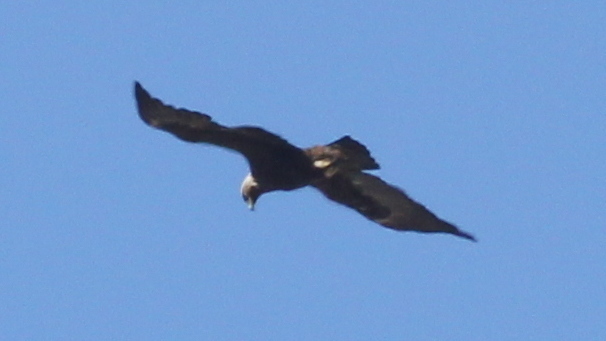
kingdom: Animalia
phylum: Chordata
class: Aves
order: Accipitriformes
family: Accipitridae
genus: Aquila
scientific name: Aquila heliaca
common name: Eastern imperial eagle
